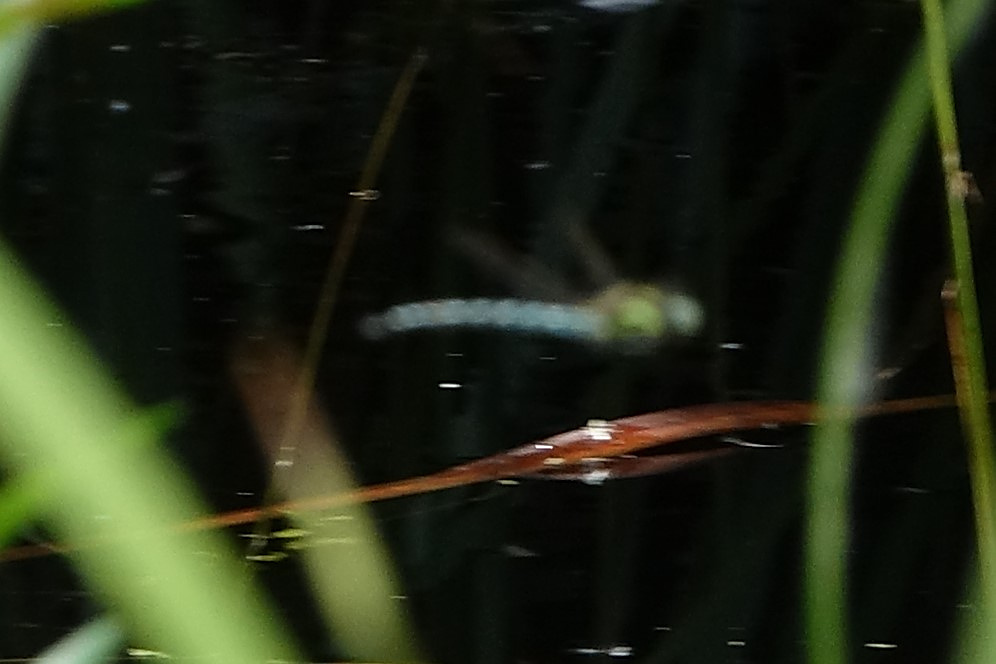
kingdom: Animalia
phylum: Arthropoda
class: Insecta
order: Odonata
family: Aeshnidae
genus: Brachytron
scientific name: Brachytron pratense
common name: Hairy hawker
